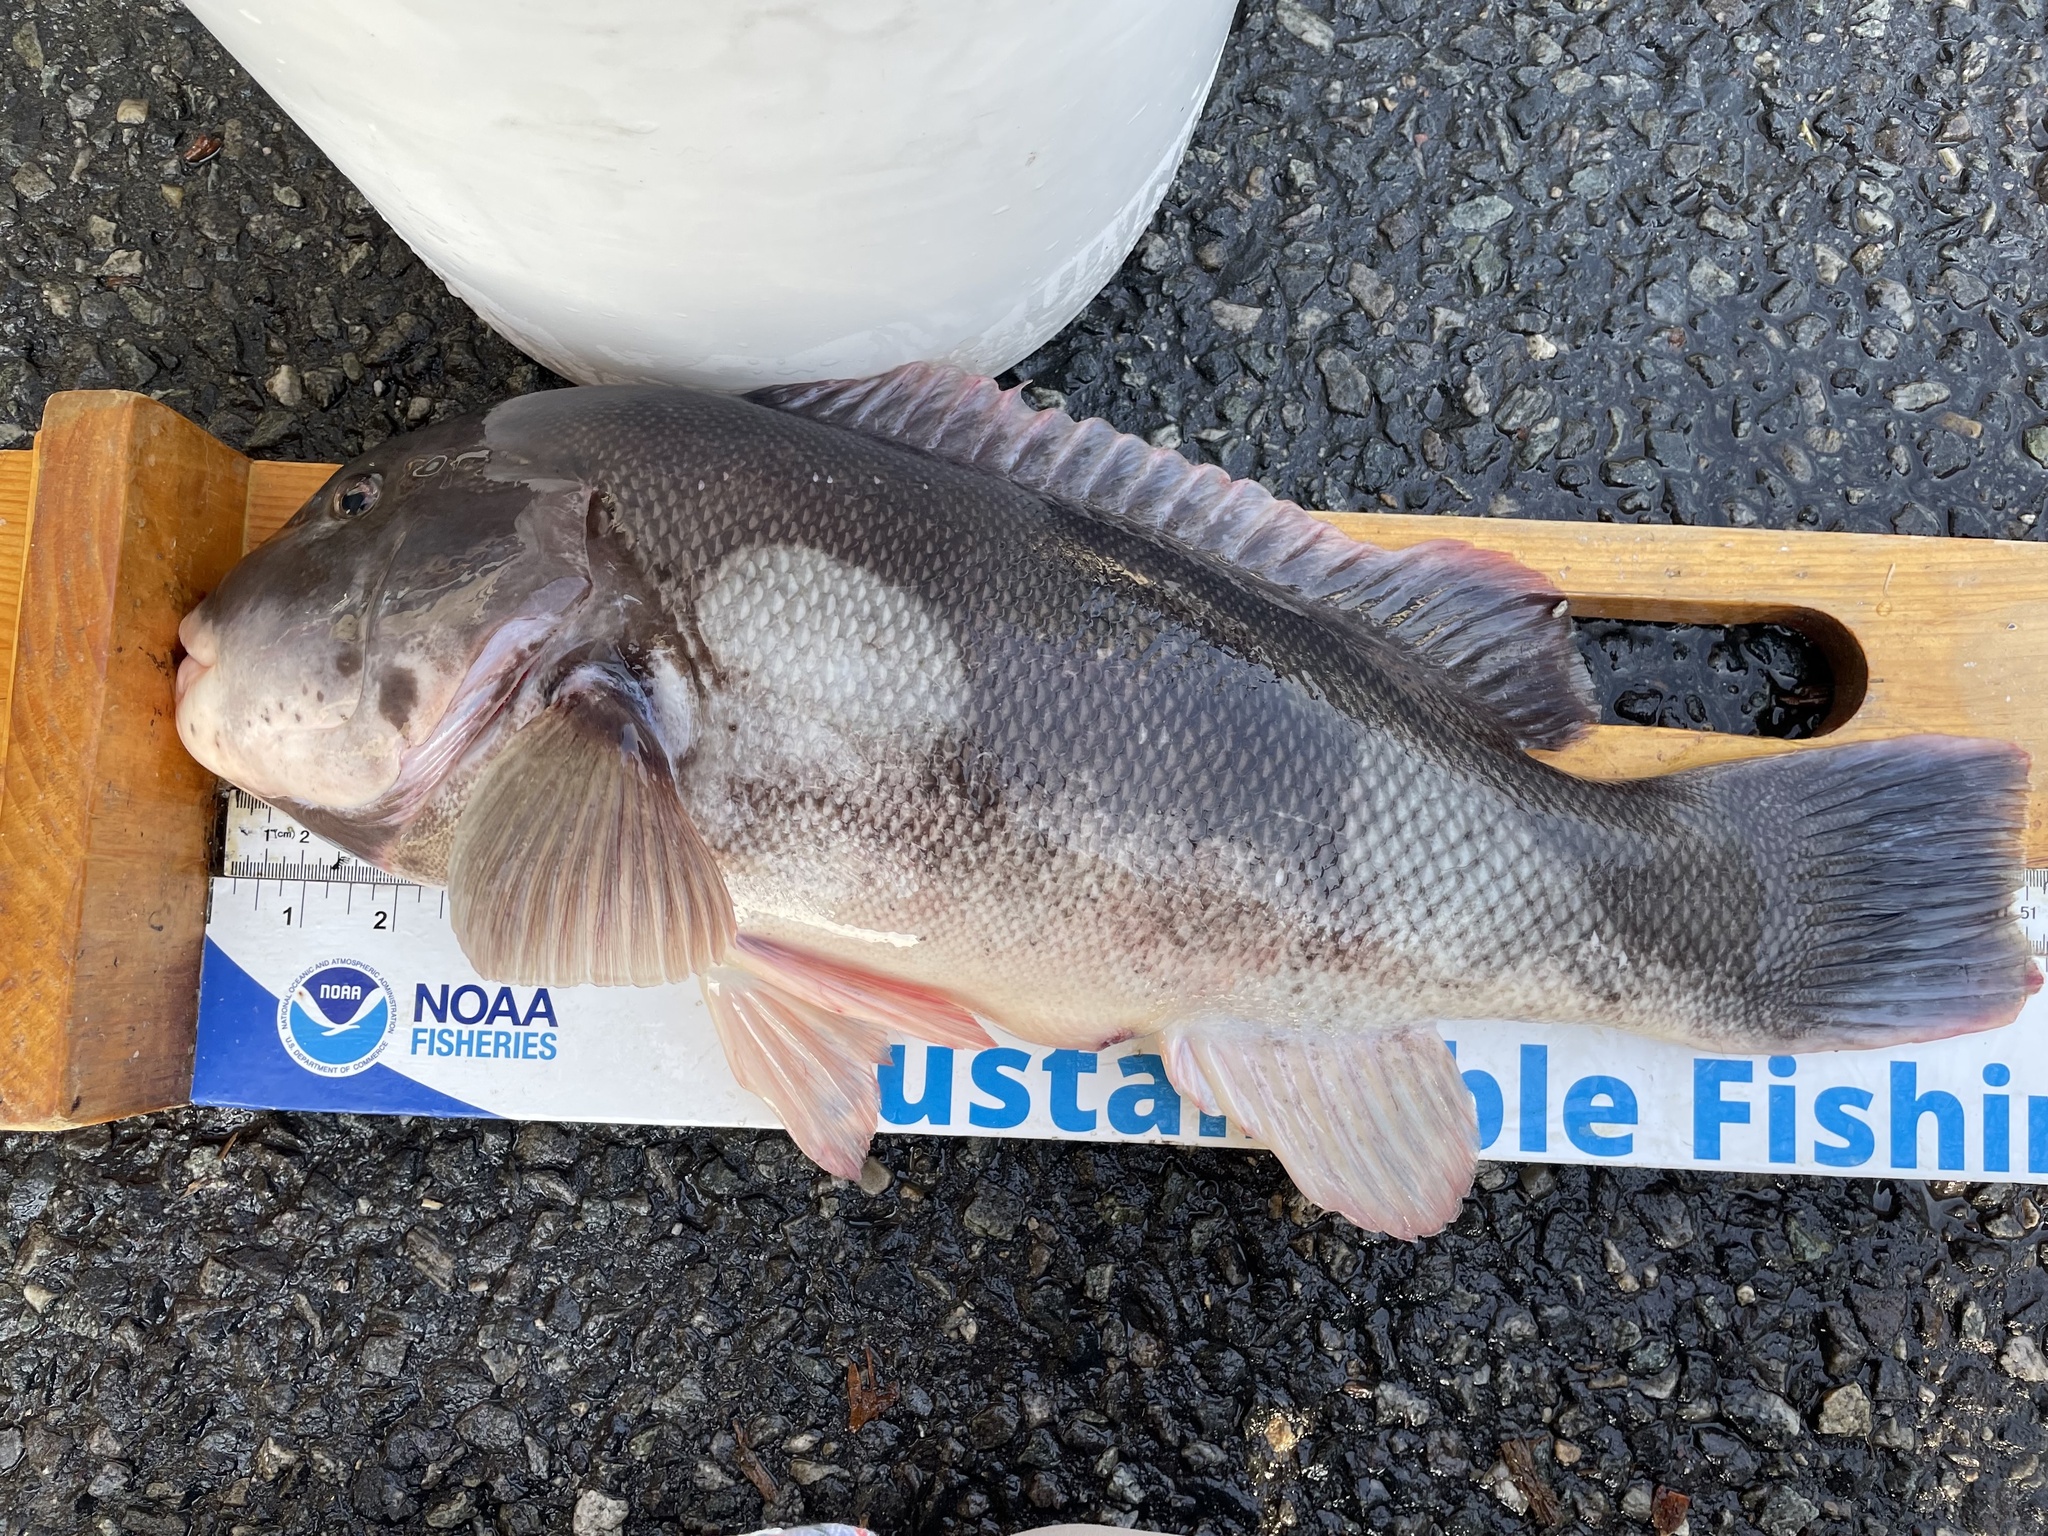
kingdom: Animalia
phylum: Chordata
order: Perciformes
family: Labridae
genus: Tautoga
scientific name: Tautoga onitis
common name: Tautog
